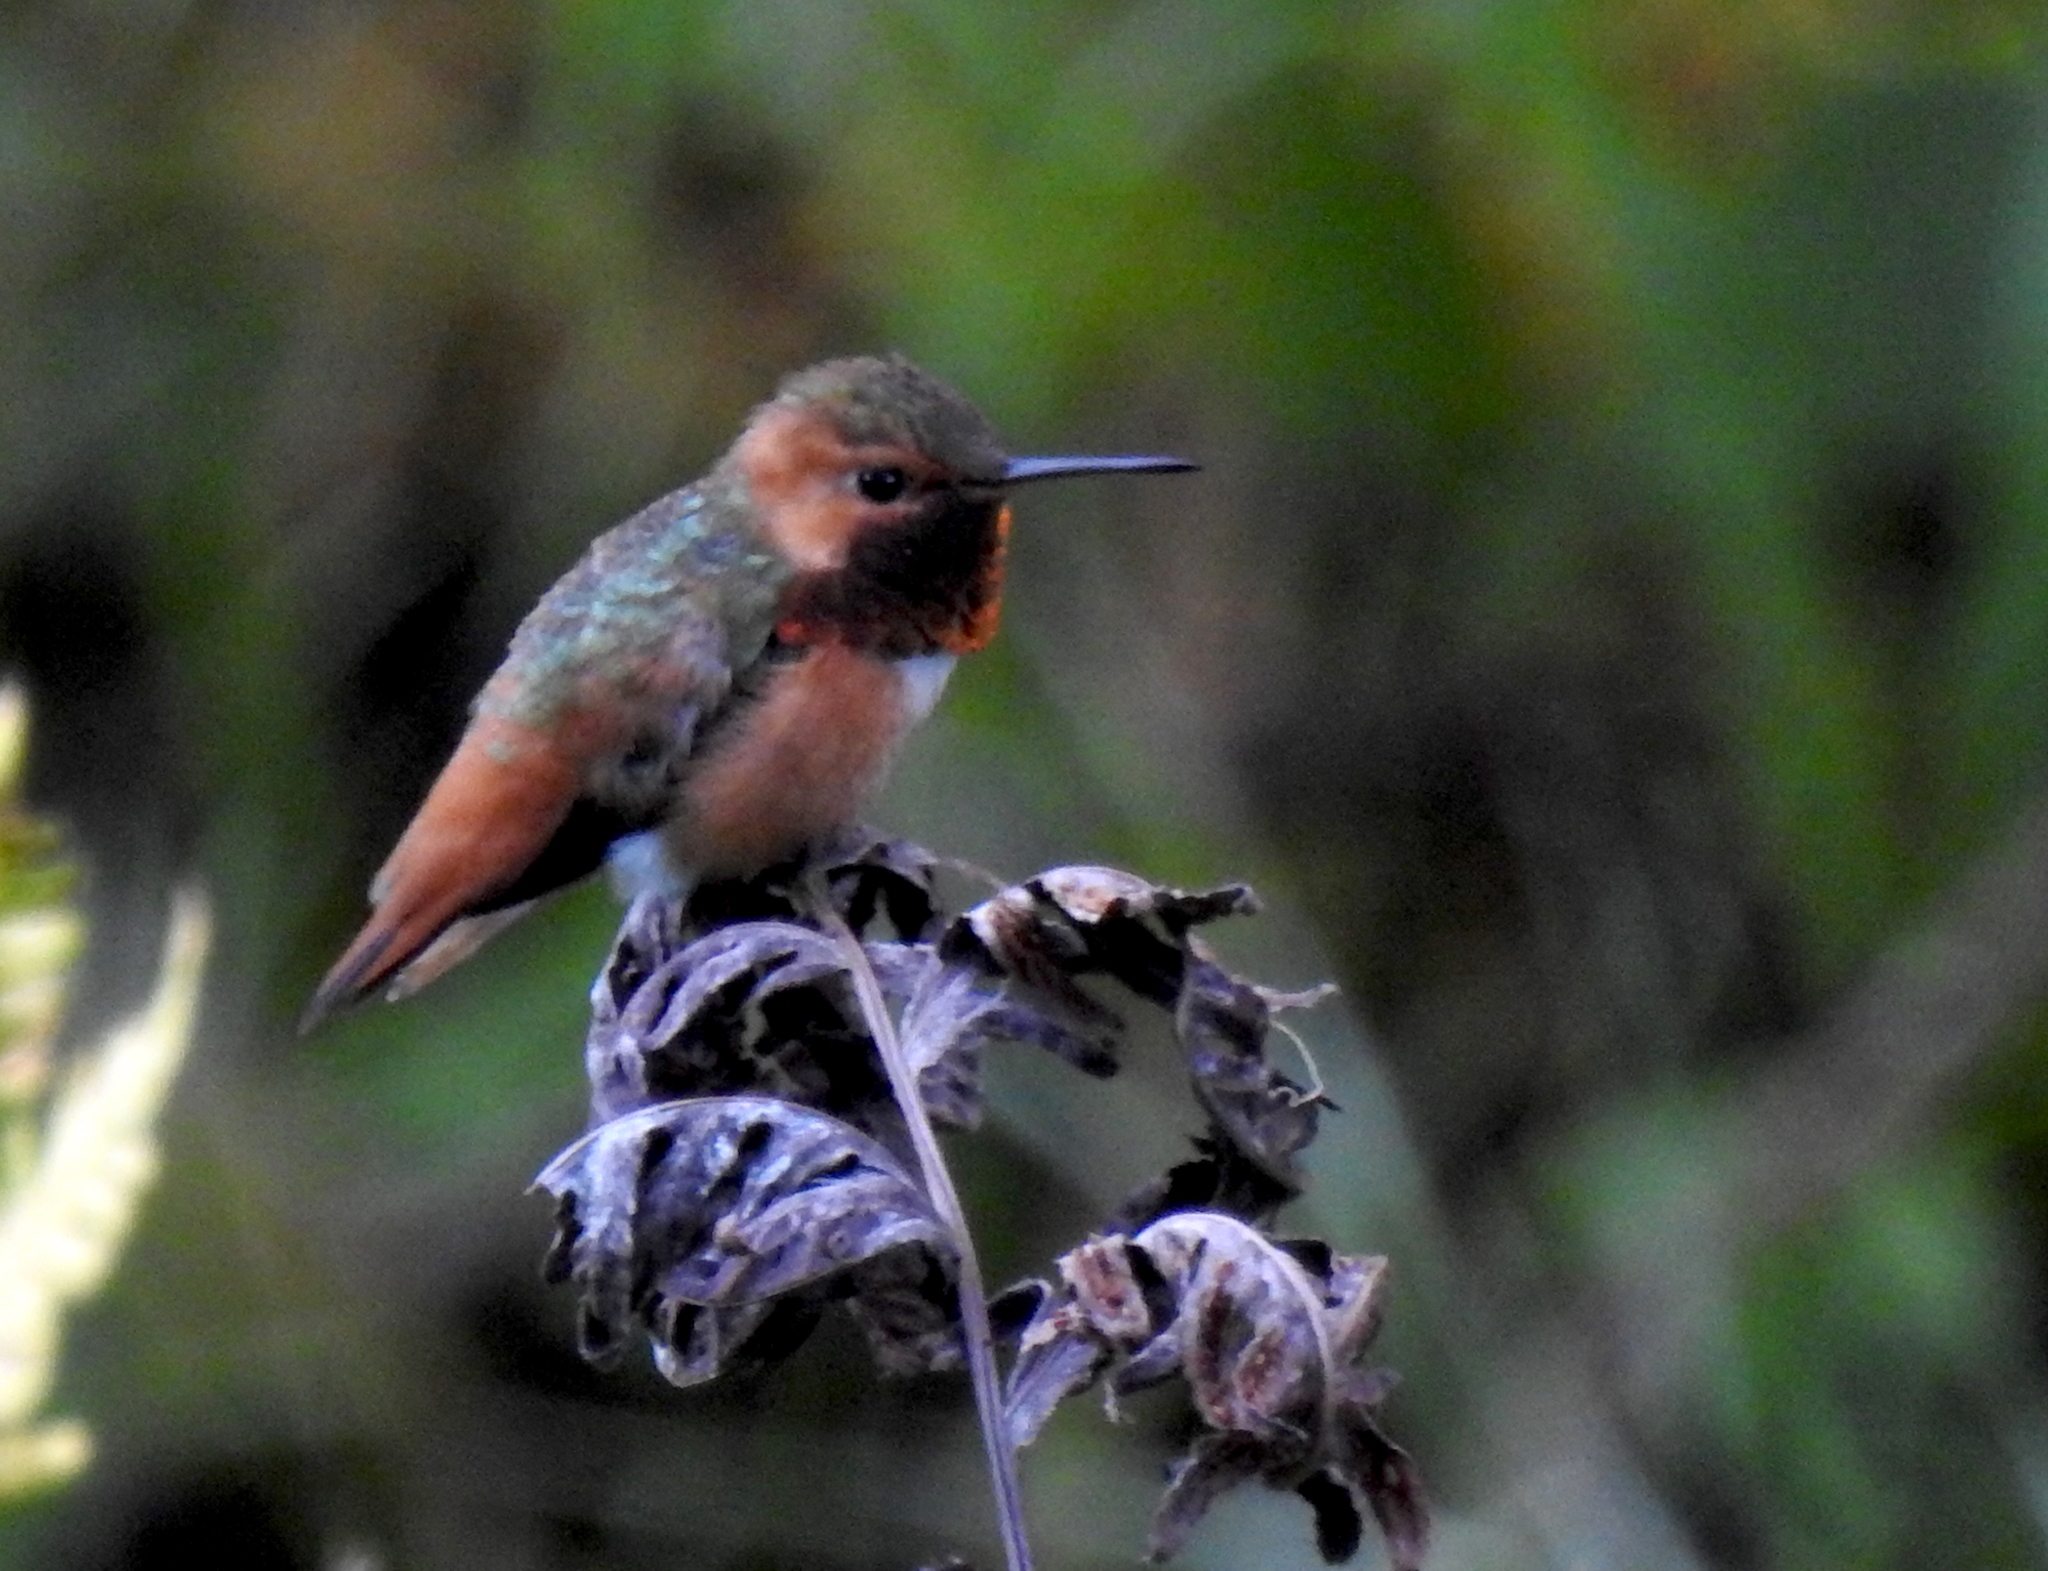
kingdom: Animalia
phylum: Chordata
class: Aves
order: Apodiformes
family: Trochilidae
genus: Selasphorus
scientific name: Selasphorus sasin
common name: Allen's hummingbird
